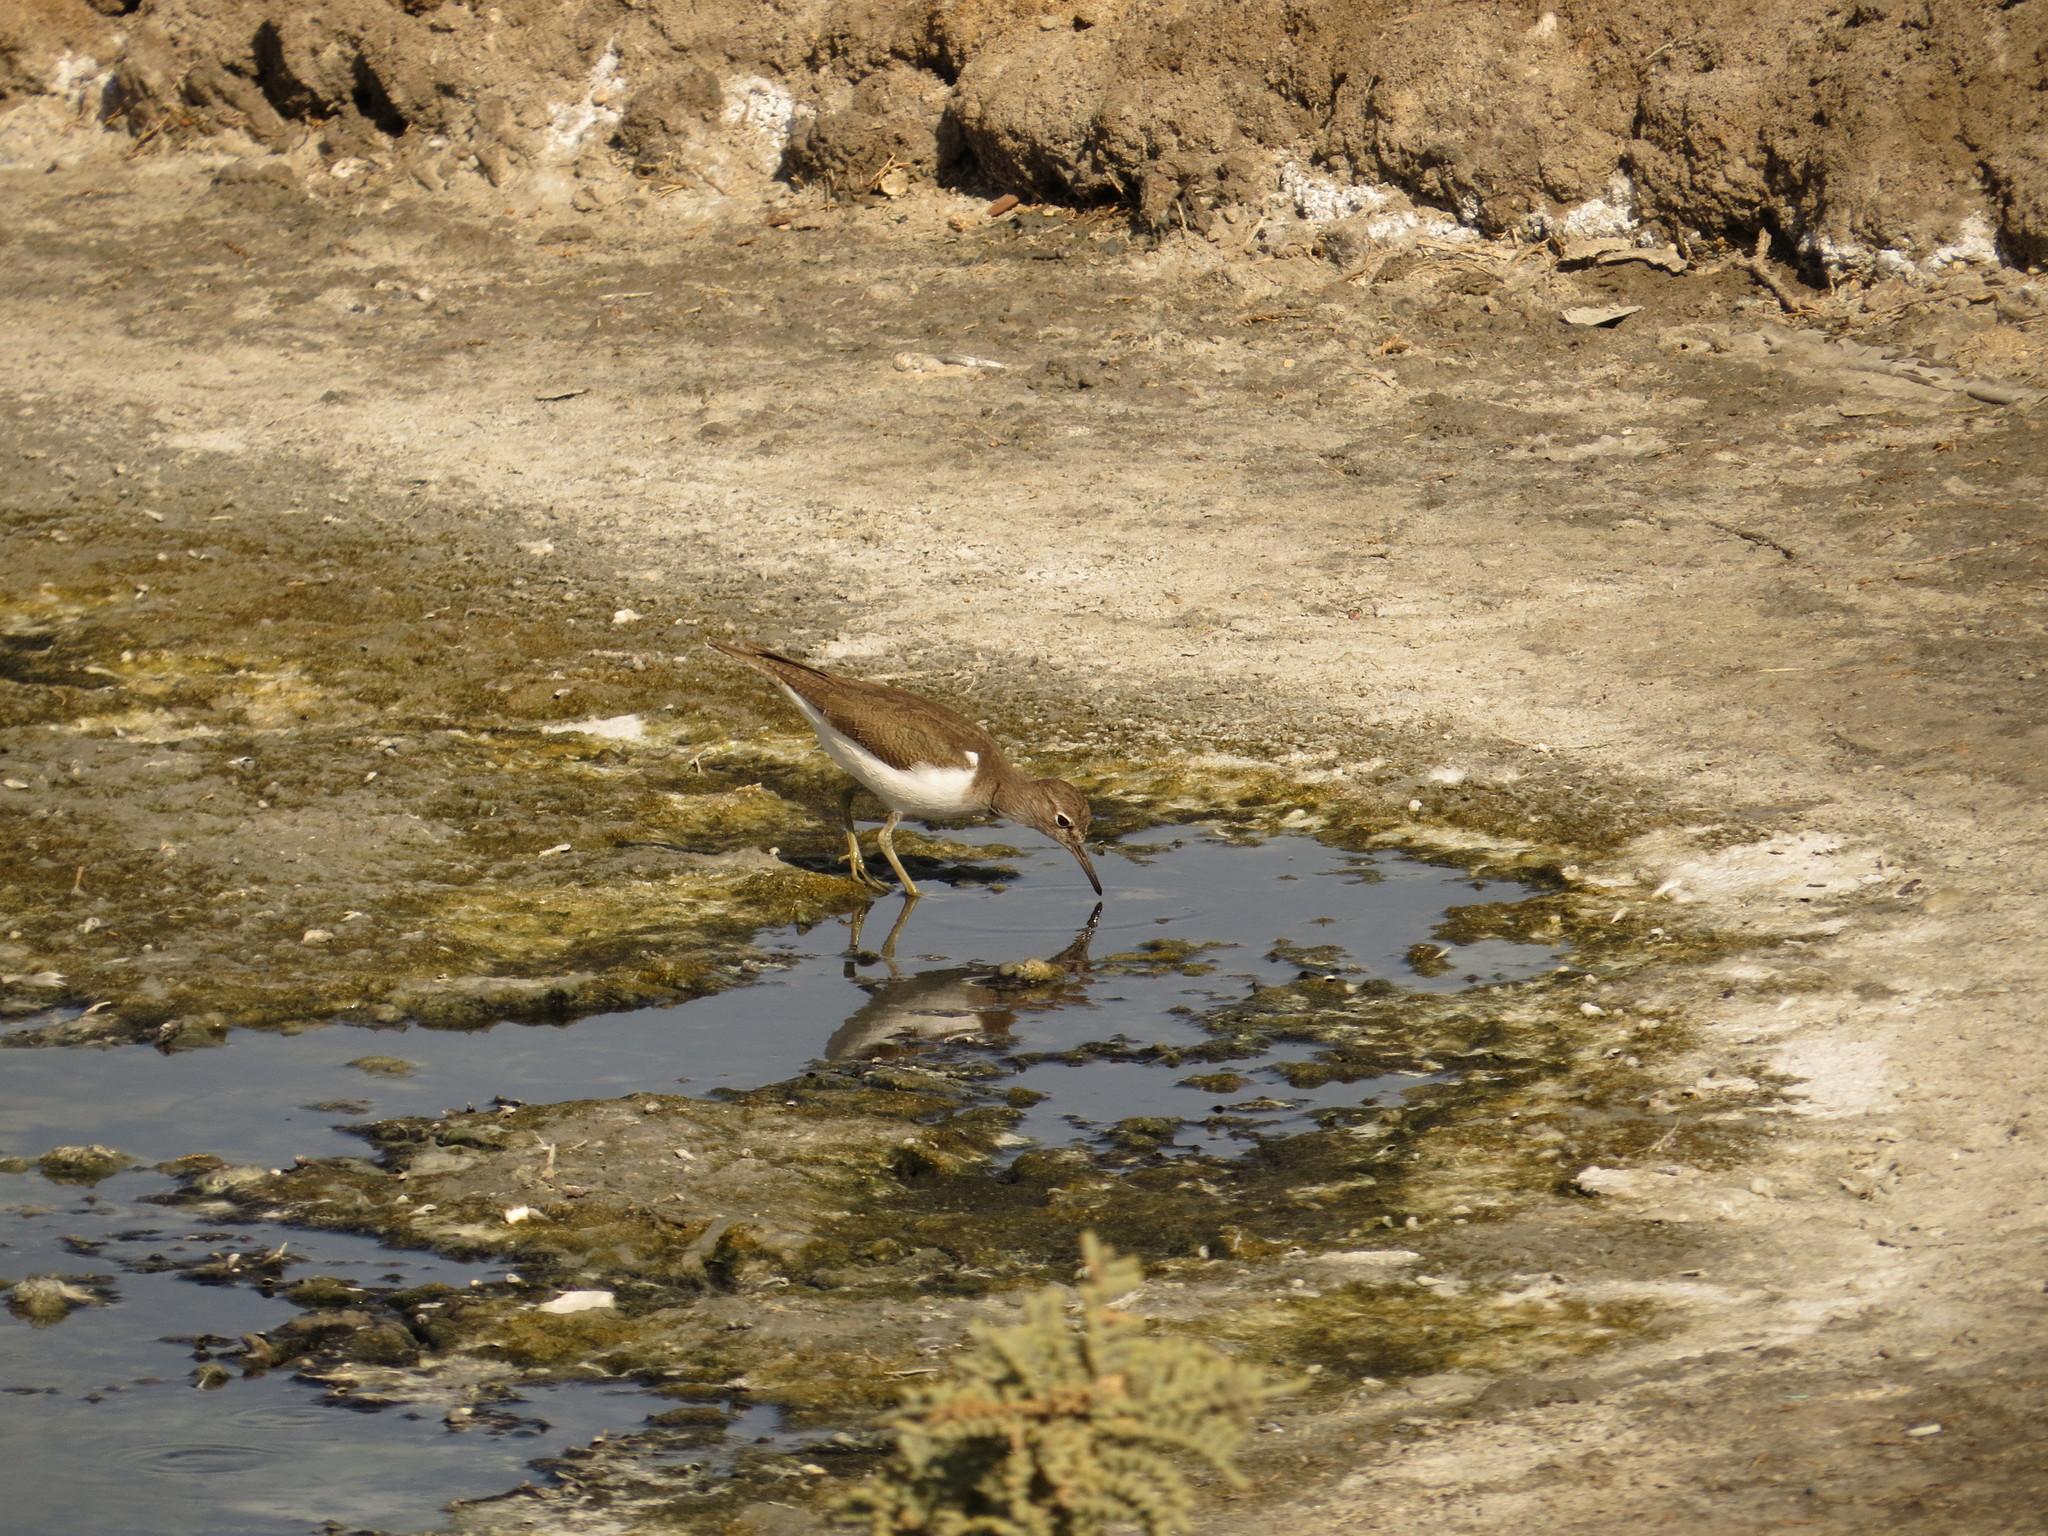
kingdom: Animalia
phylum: Chordata
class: Aves
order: Charadriiformes
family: Scolopacidae
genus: Actitis
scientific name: Actitis hypoleucos
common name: Common sandpiper
